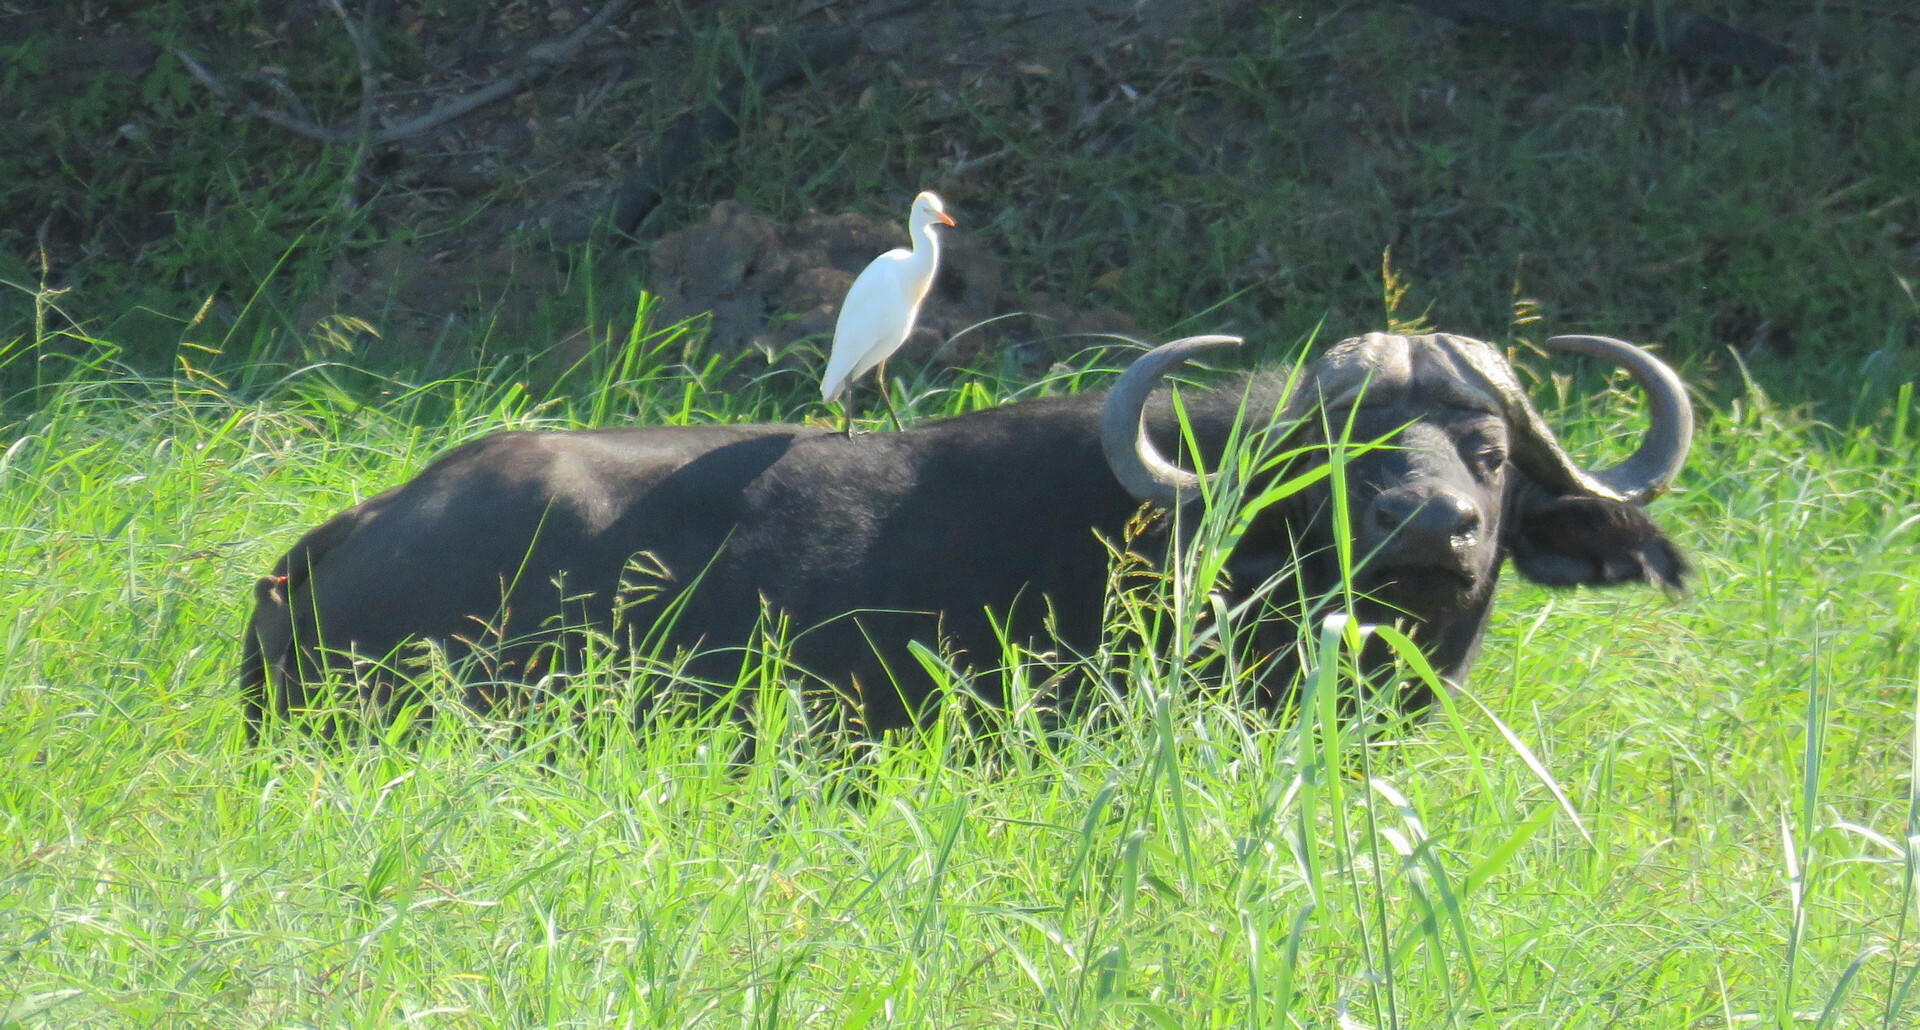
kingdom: Animalia
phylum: Chordata
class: Mammalia
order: Artiodactyla
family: Bovidae
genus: Syncerus
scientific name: Syncerus caffer
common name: African buffalo
